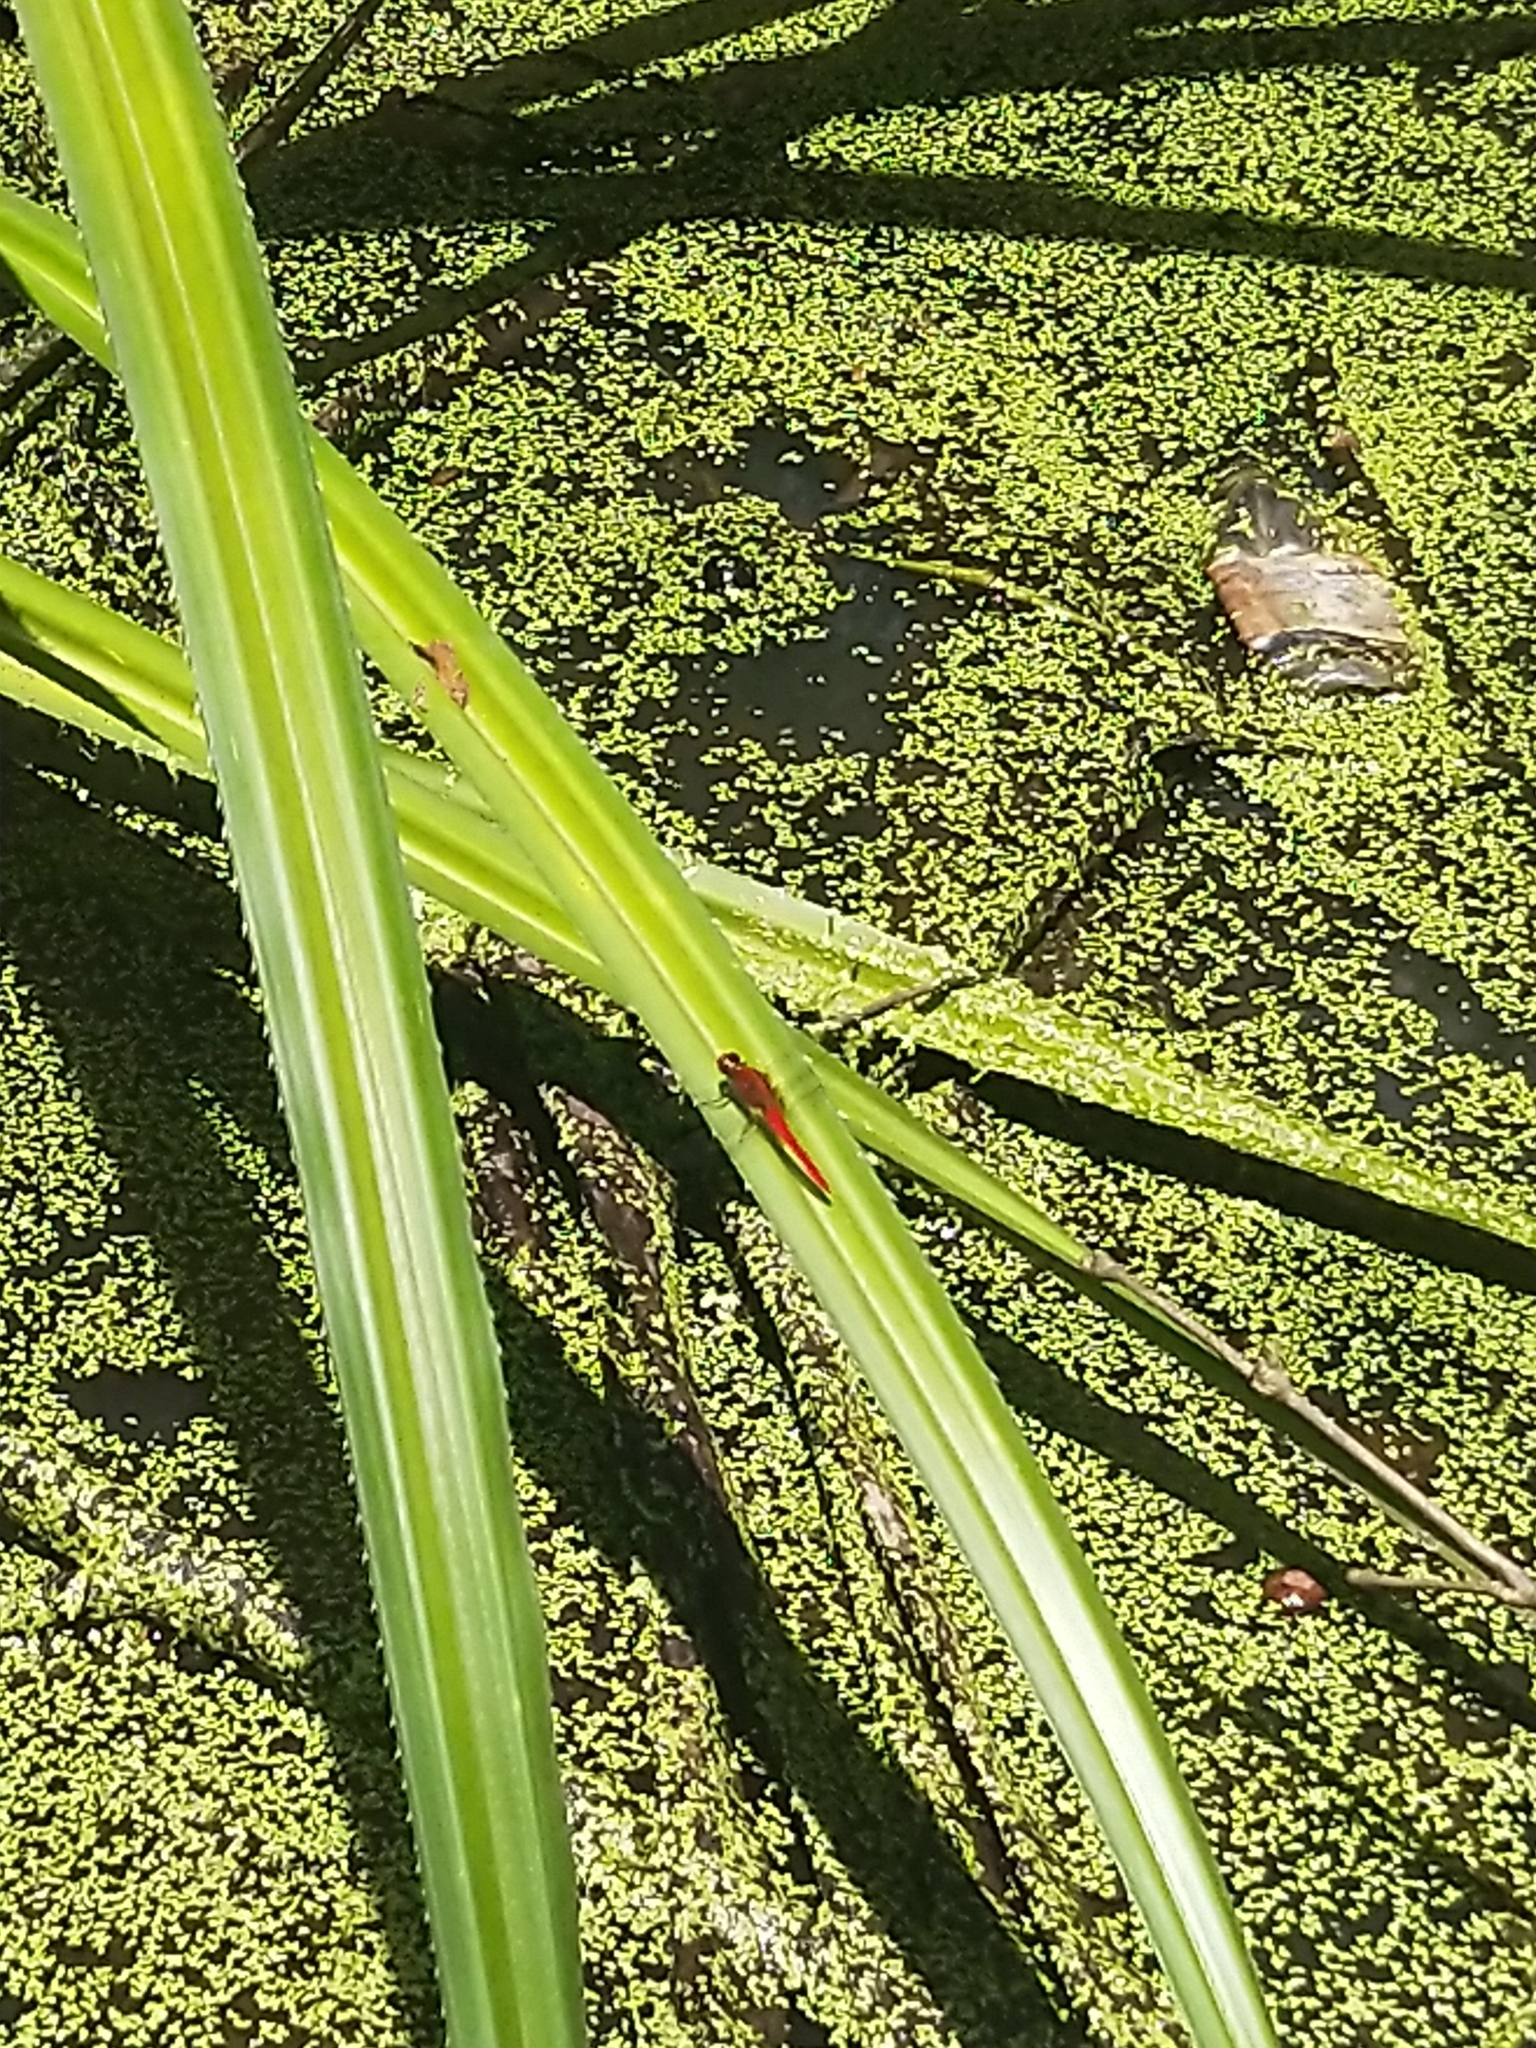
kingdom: Animalia
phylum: Arthropoda
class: Insecta
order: Odonata
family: Libellulidae
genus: Rhodothemis
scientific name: Rhodothemis rufa
